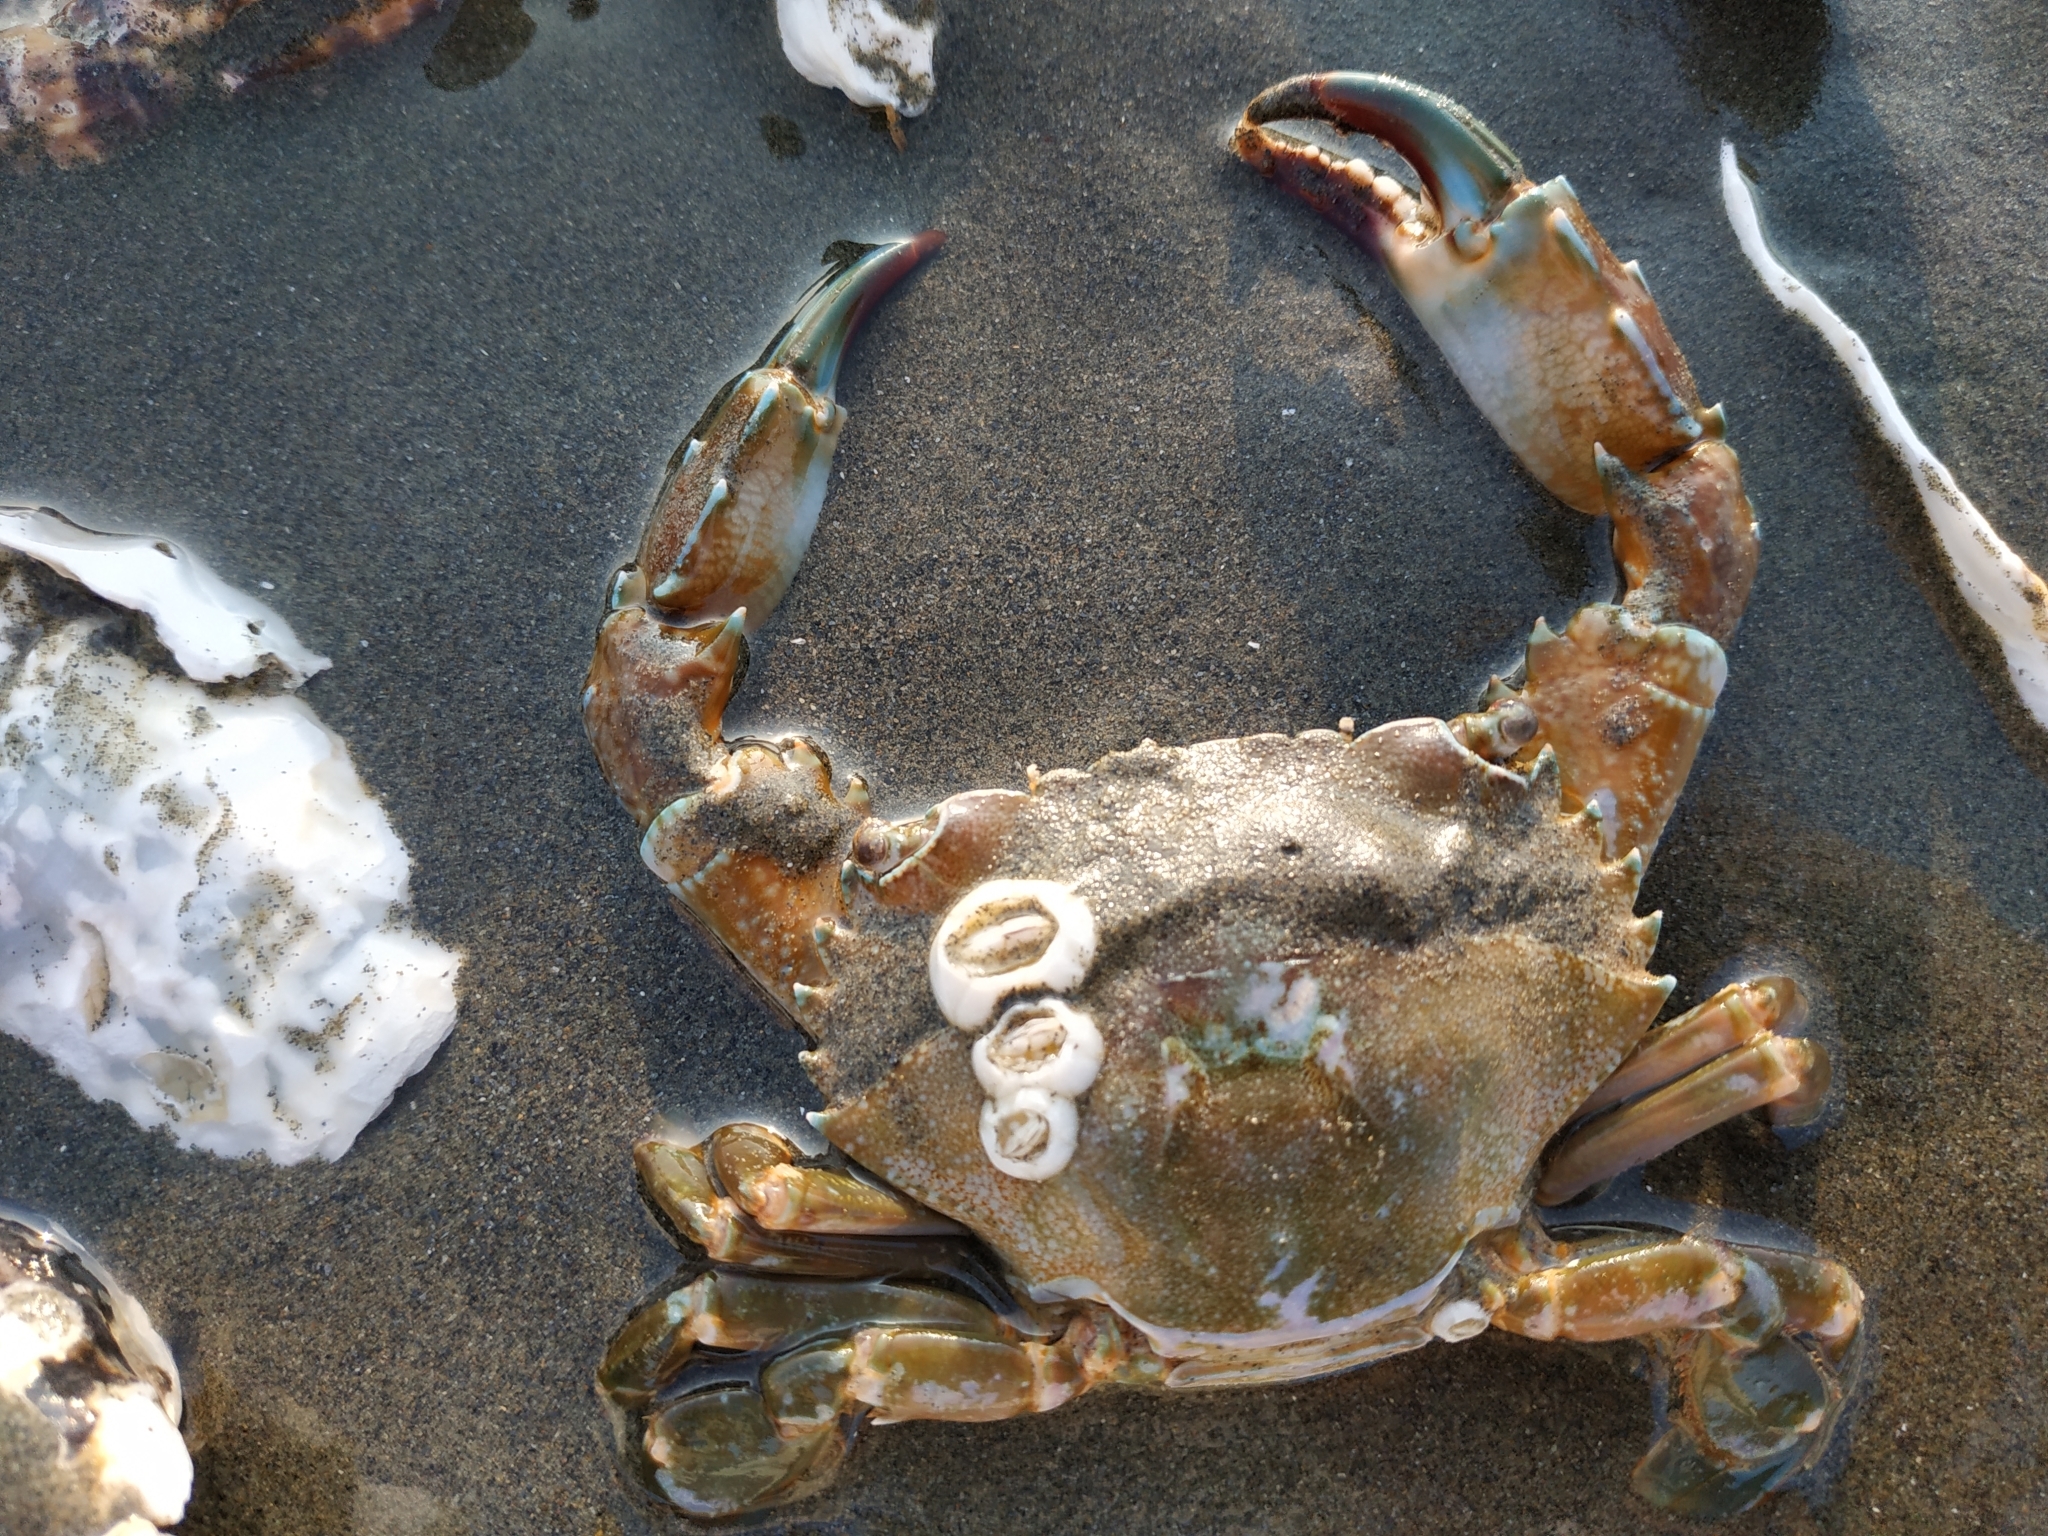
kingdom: Animalia
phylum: Arthropoda
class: Malacostraca
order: Decapoda
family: Portunidae
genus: Thalamita
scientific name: Thalamita crenata
